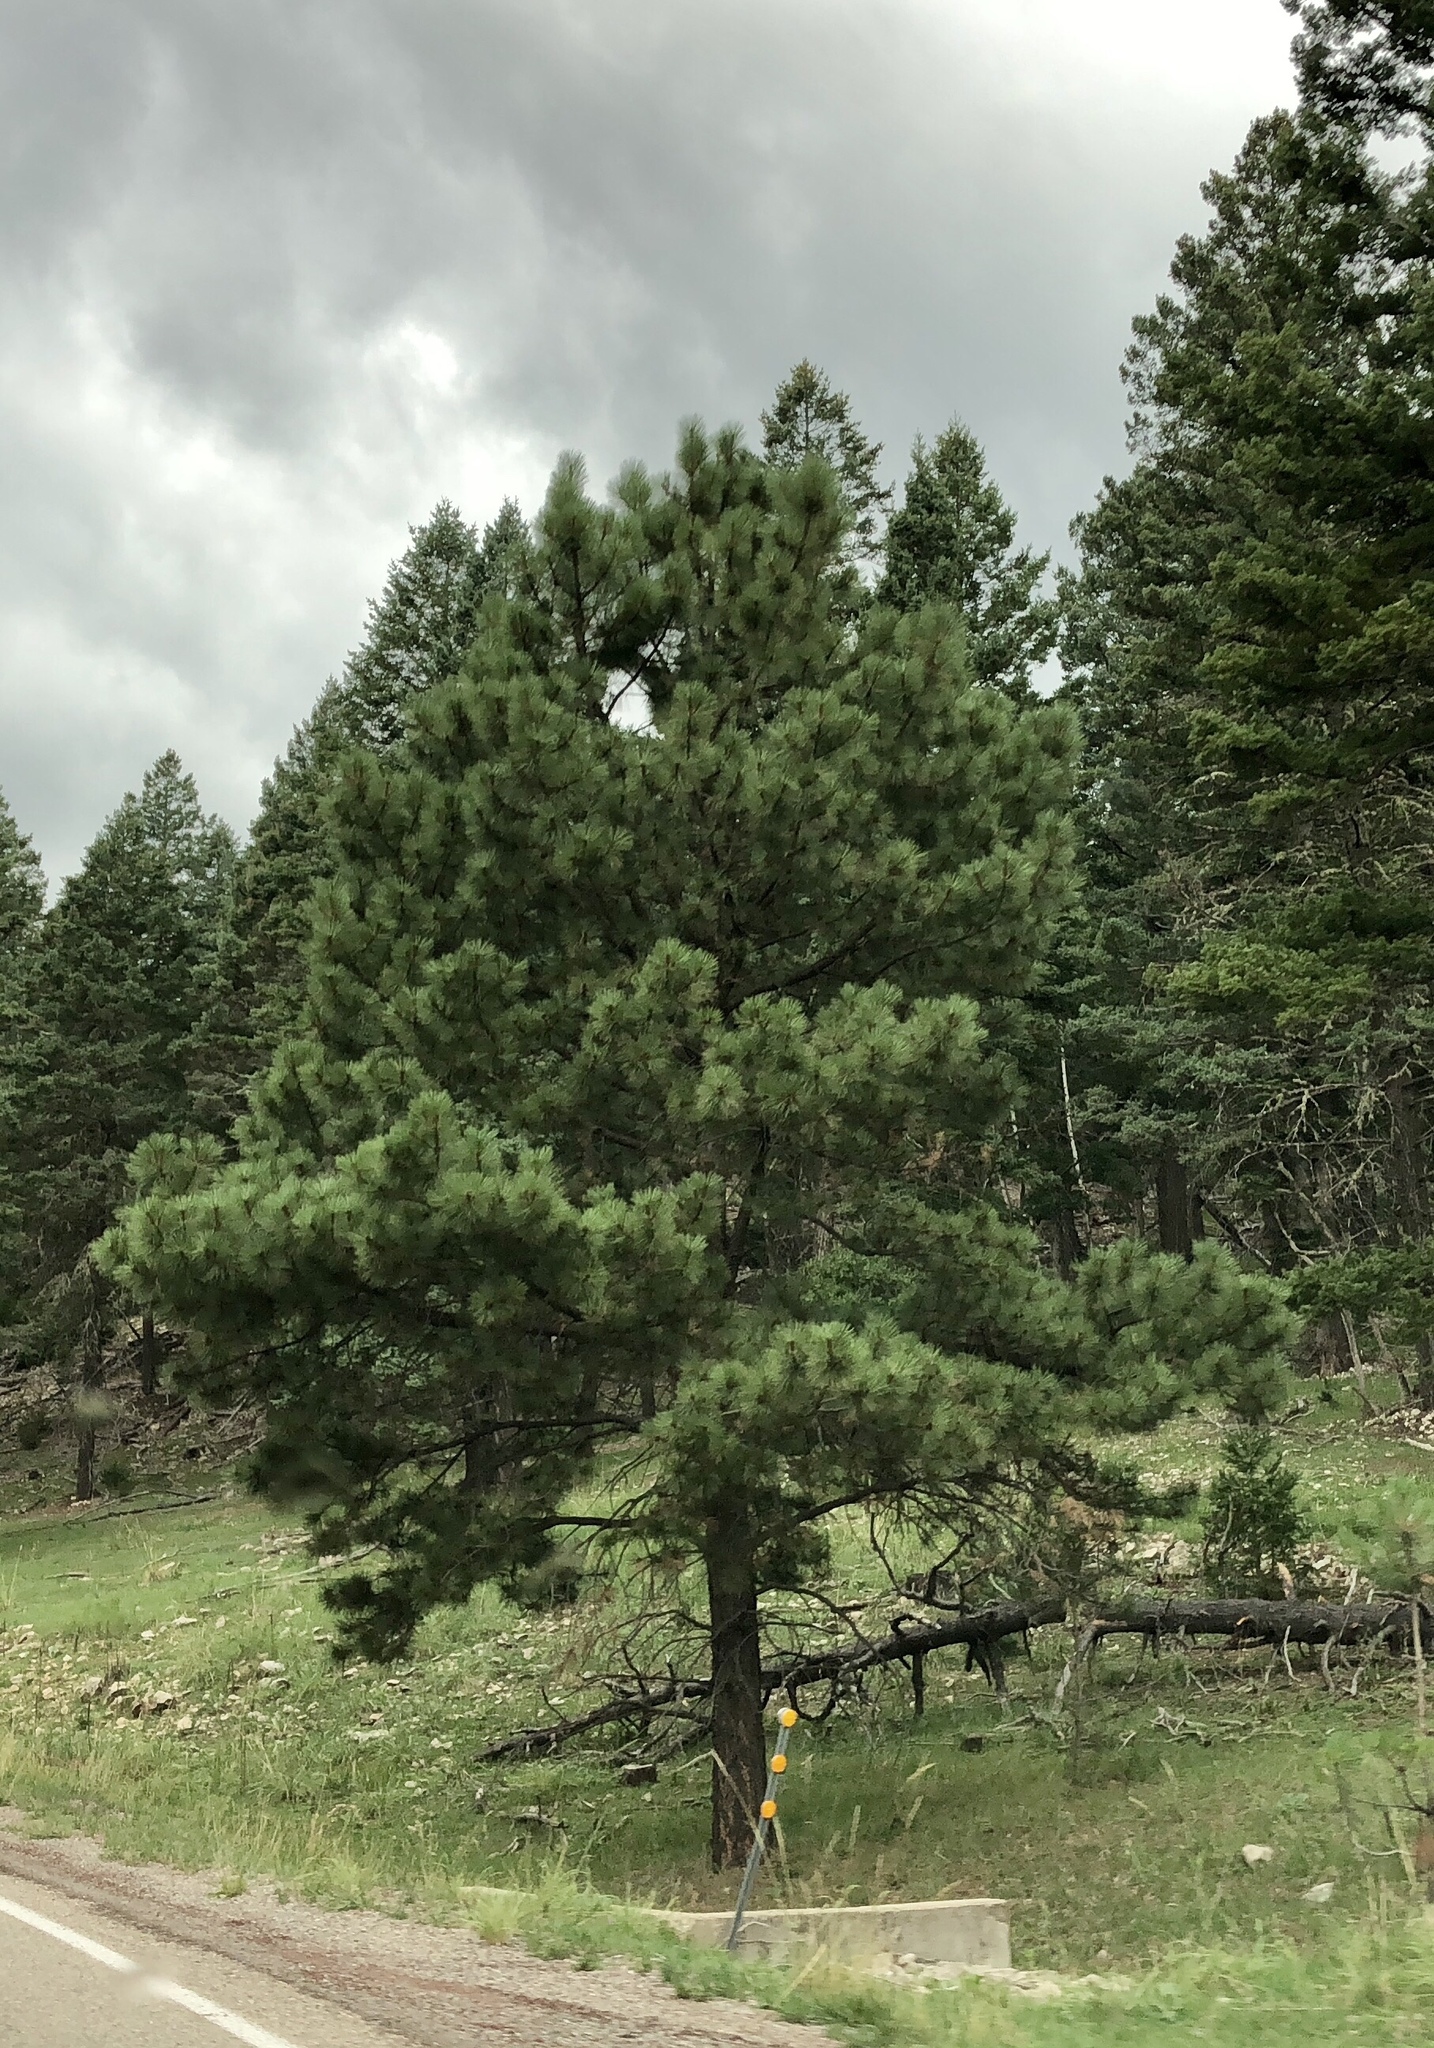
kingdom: Plantae
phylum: Tracheophyta
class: Pinopsida
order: Pinales
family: Pinaceae
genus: Pinus
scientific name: Pinus ponderosa
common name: Western yellow-pine
